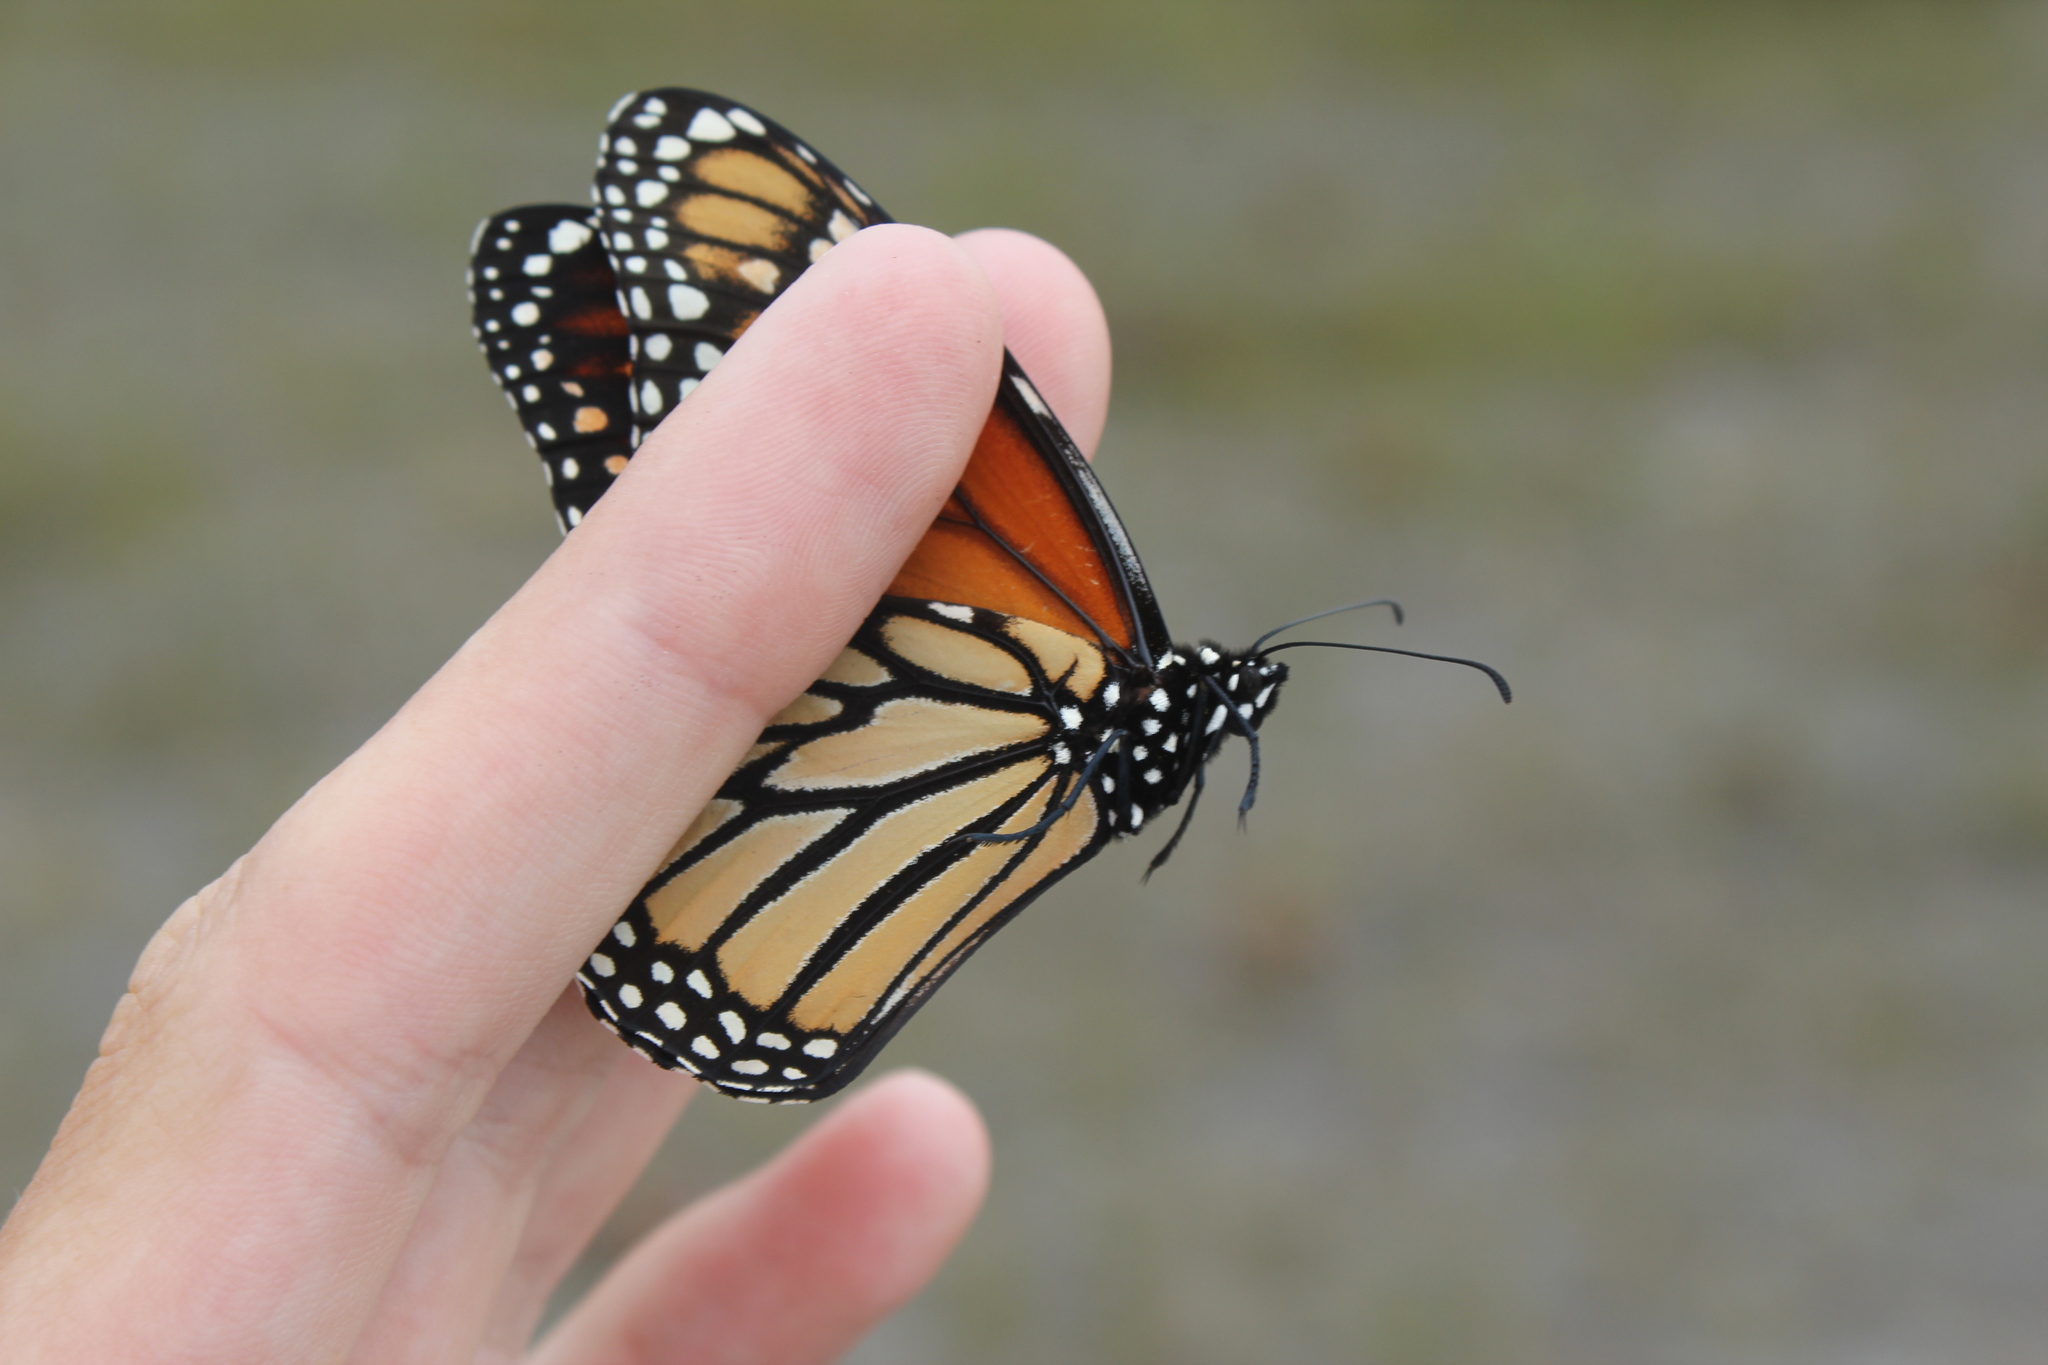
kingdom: Animalia
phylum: Arthropoda
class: Insecta
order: Lepidoptera
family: Nymphalidae
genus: Danaus
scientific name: Danaus plexippus
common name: Monarch
